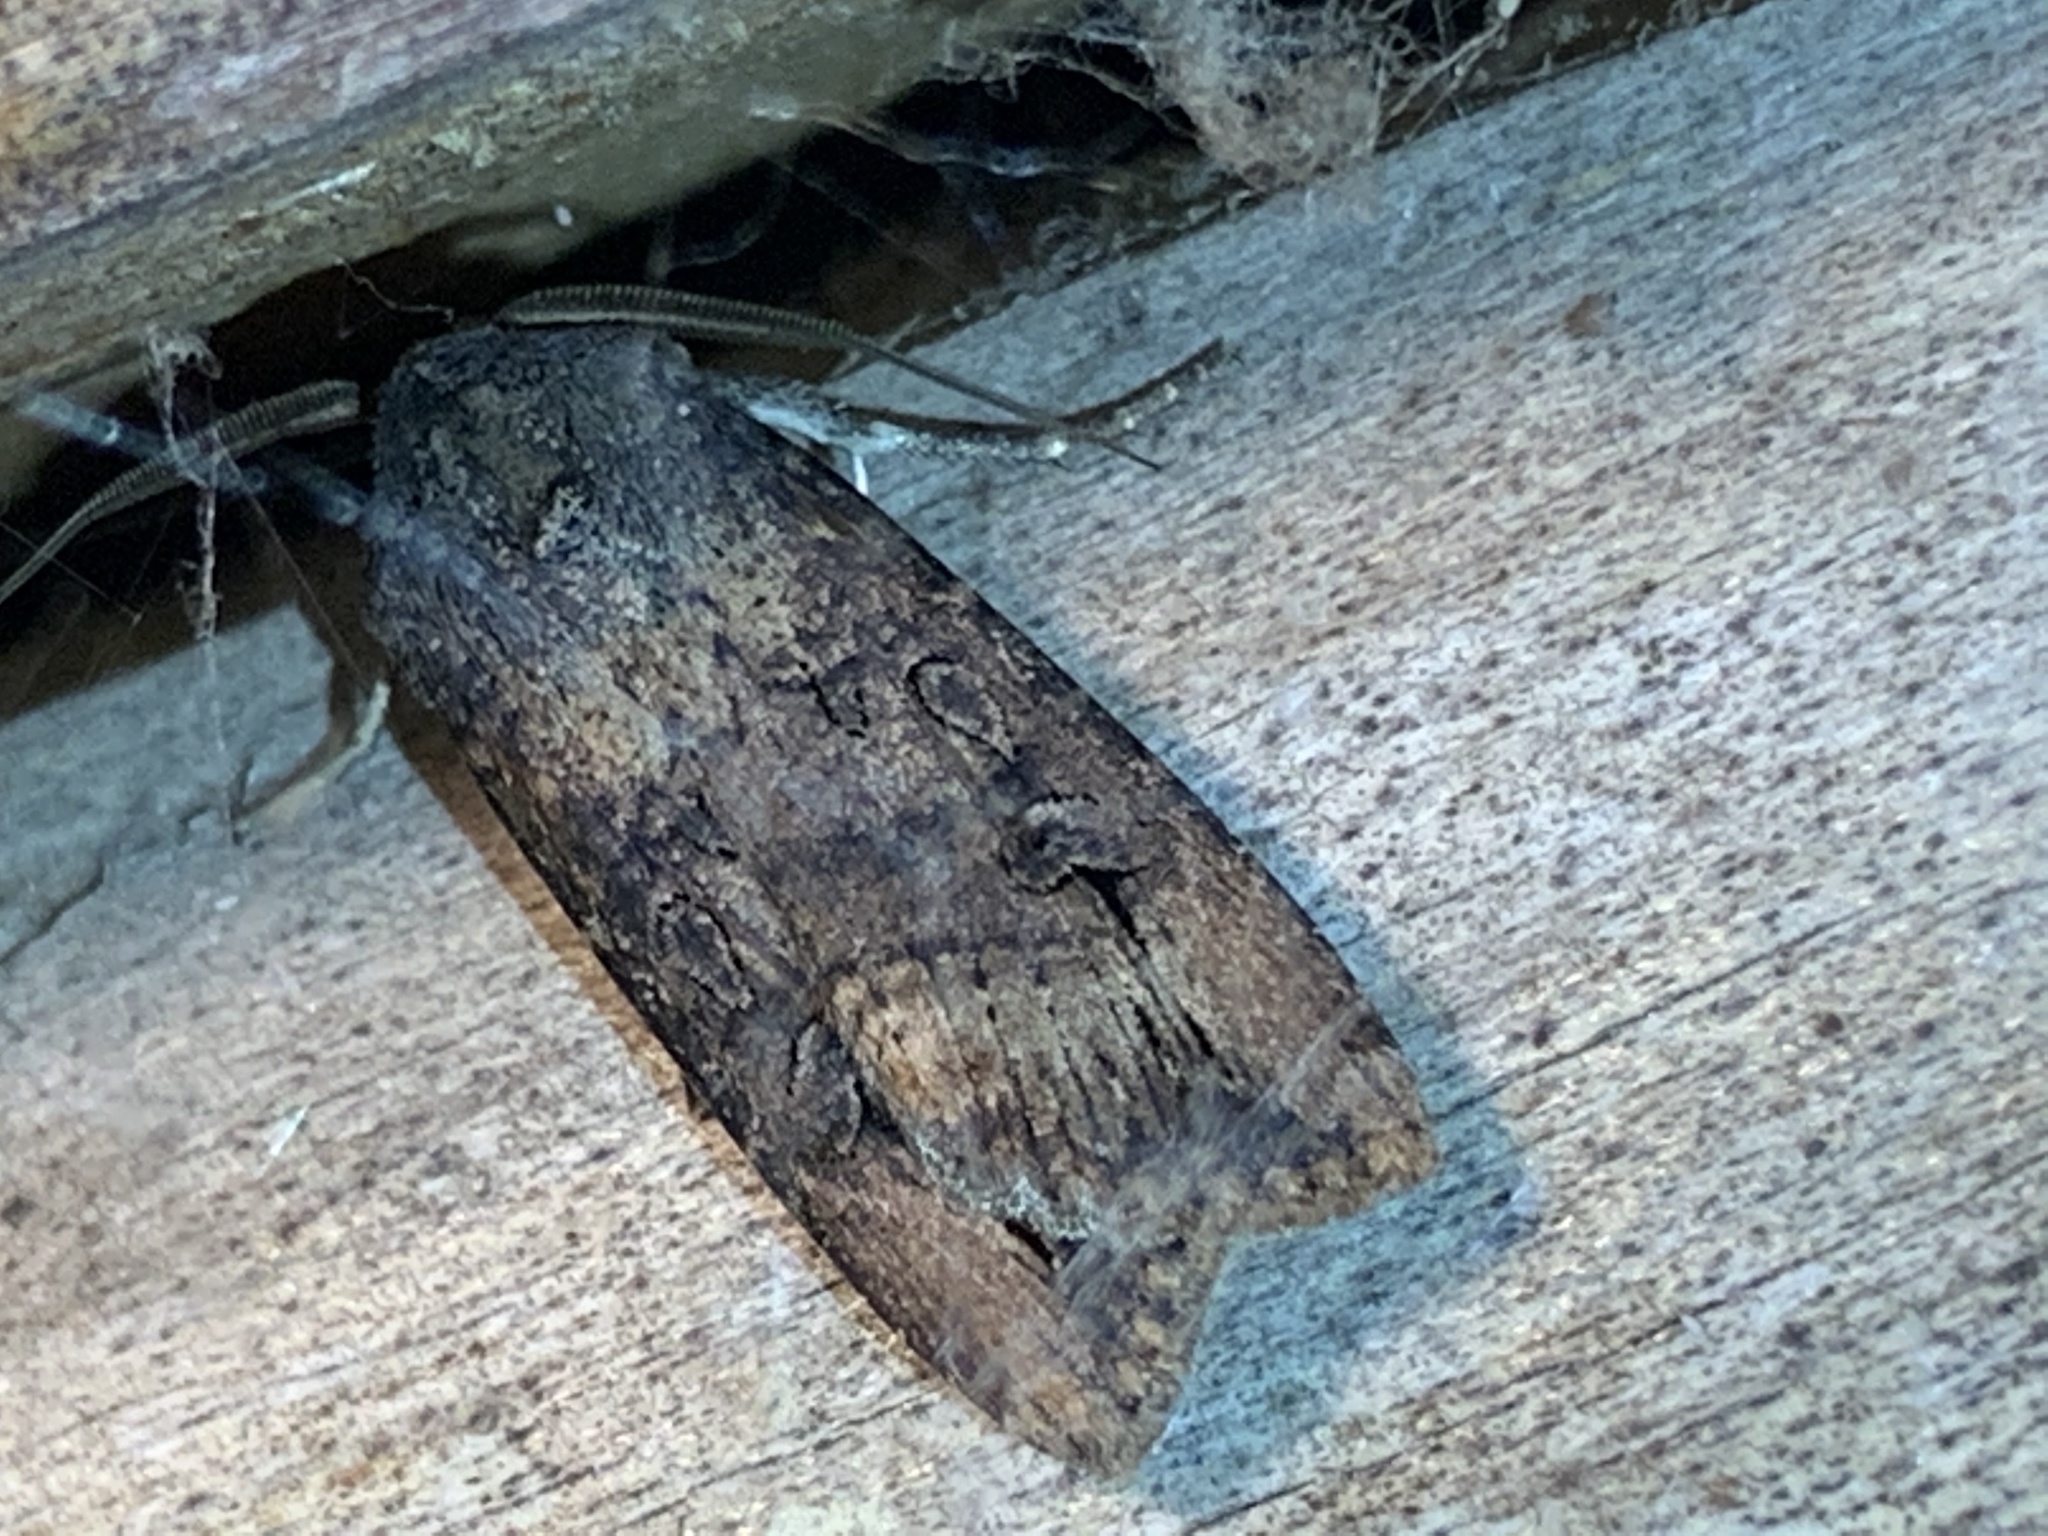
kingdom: Animalia
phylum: Arthropoda
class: Insecta
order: Lepidoptera
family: Noctuidae
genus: Agrotis
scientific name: Agrotis ipsilon
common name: Dark sword-grass
